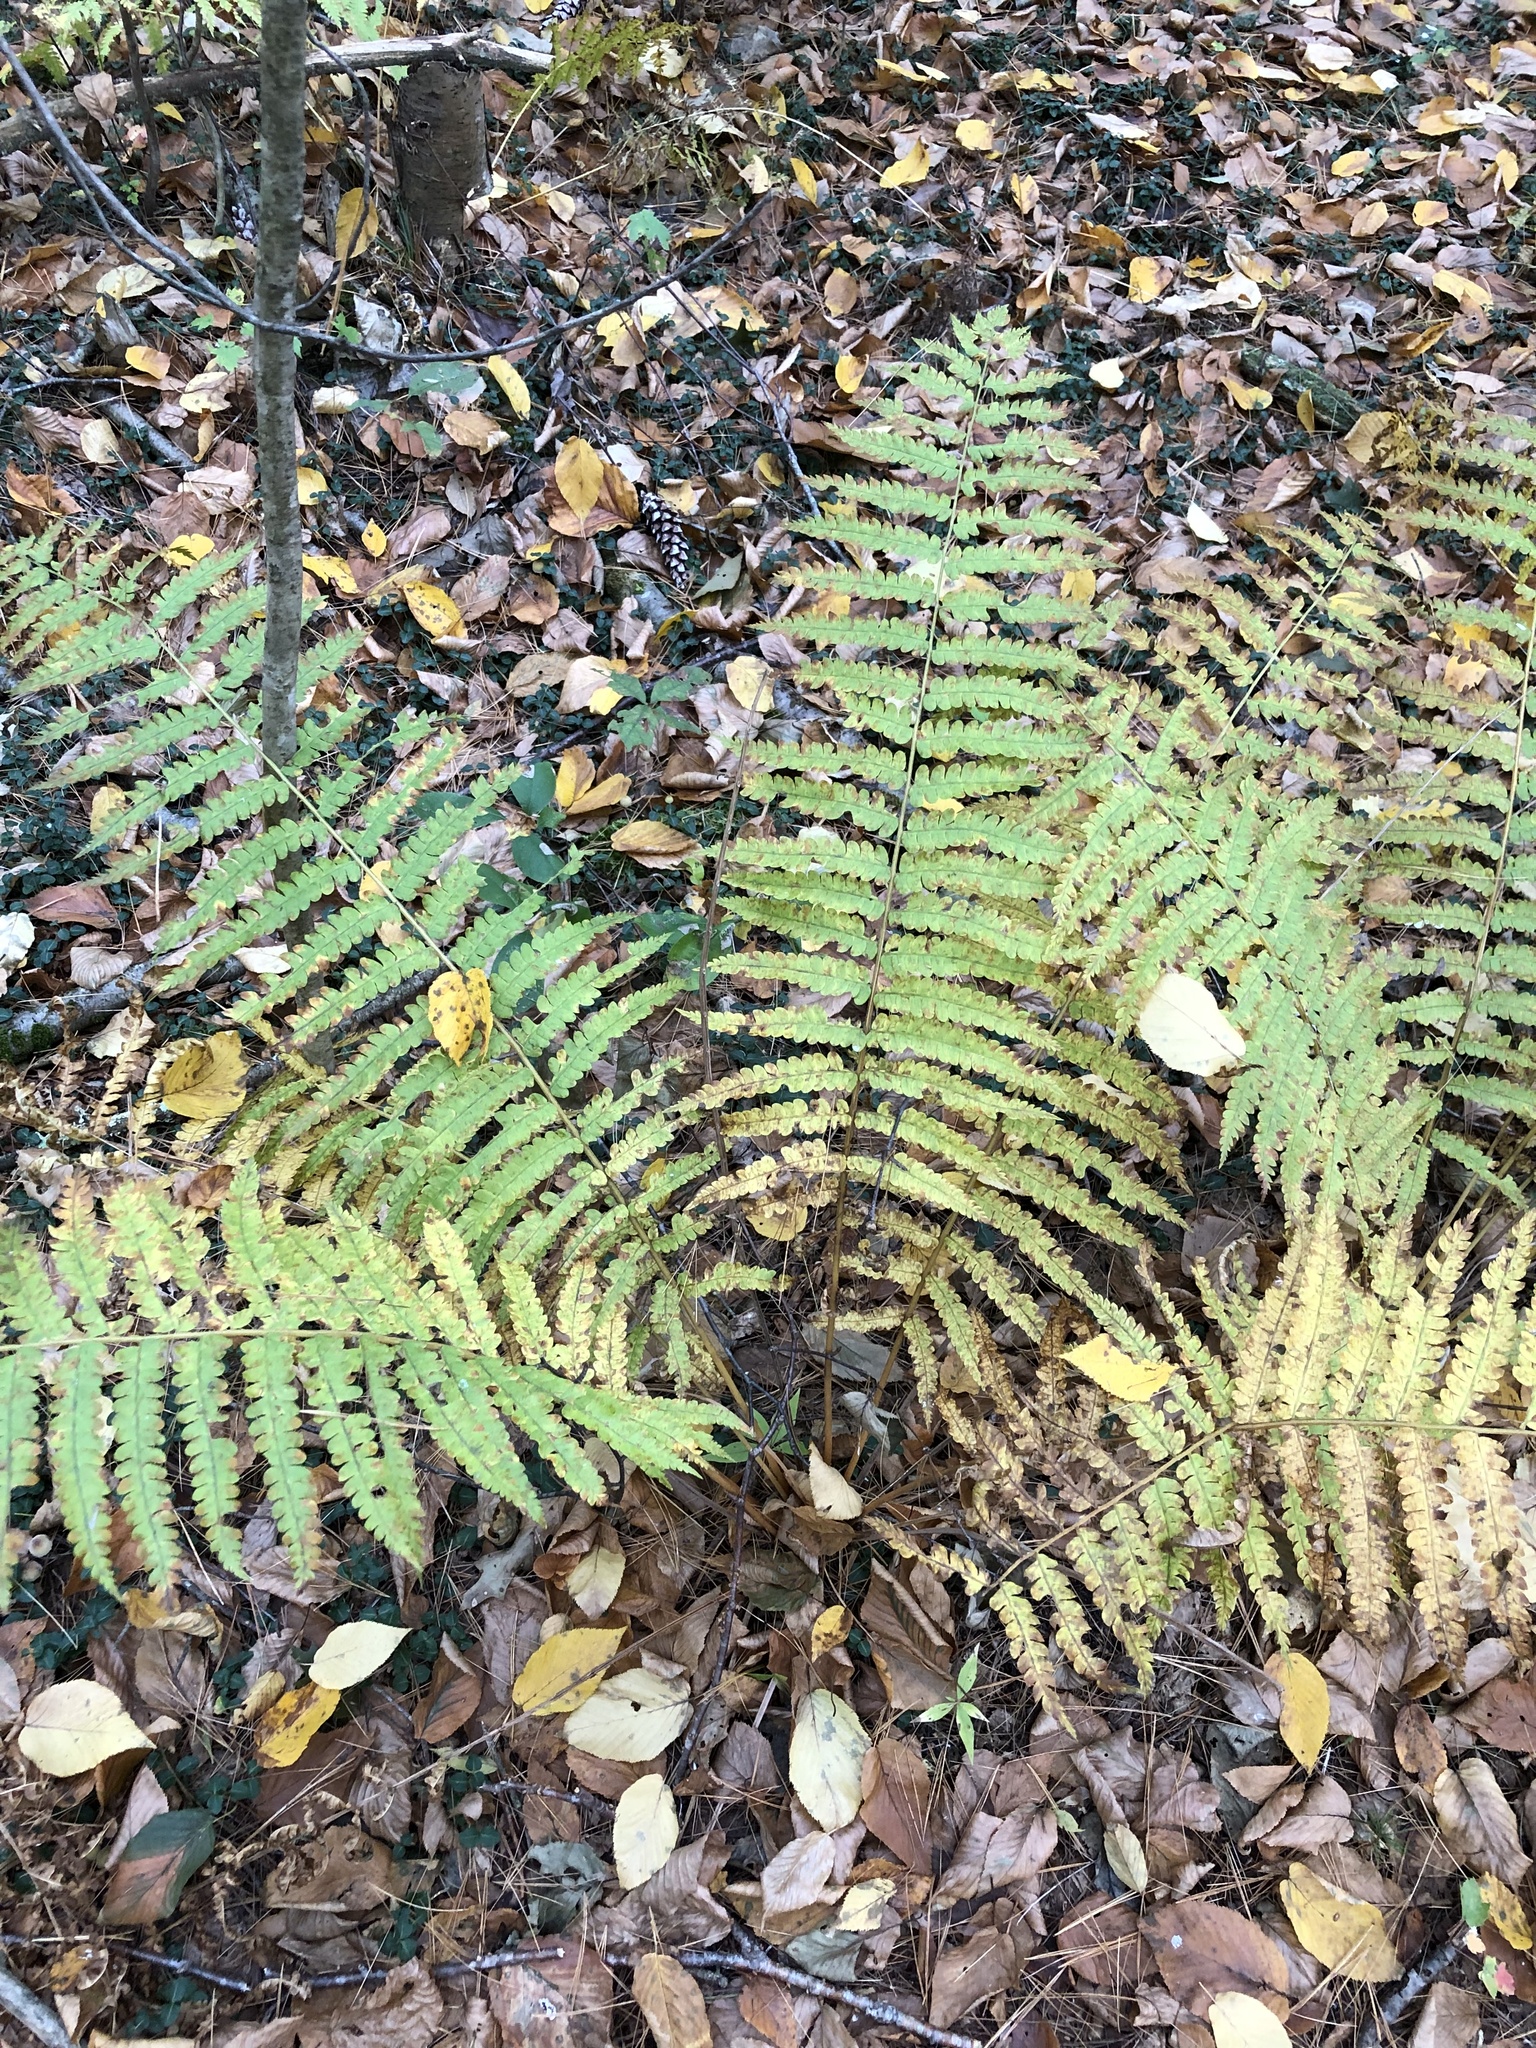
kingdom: Plantae
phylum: Tracheophyta
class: Polypodiopsida
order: Osmundales
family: Osmundaceae
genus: Osmundastrum
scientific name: Osmundastrum cinnamomeum
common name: Cinnamon fern
